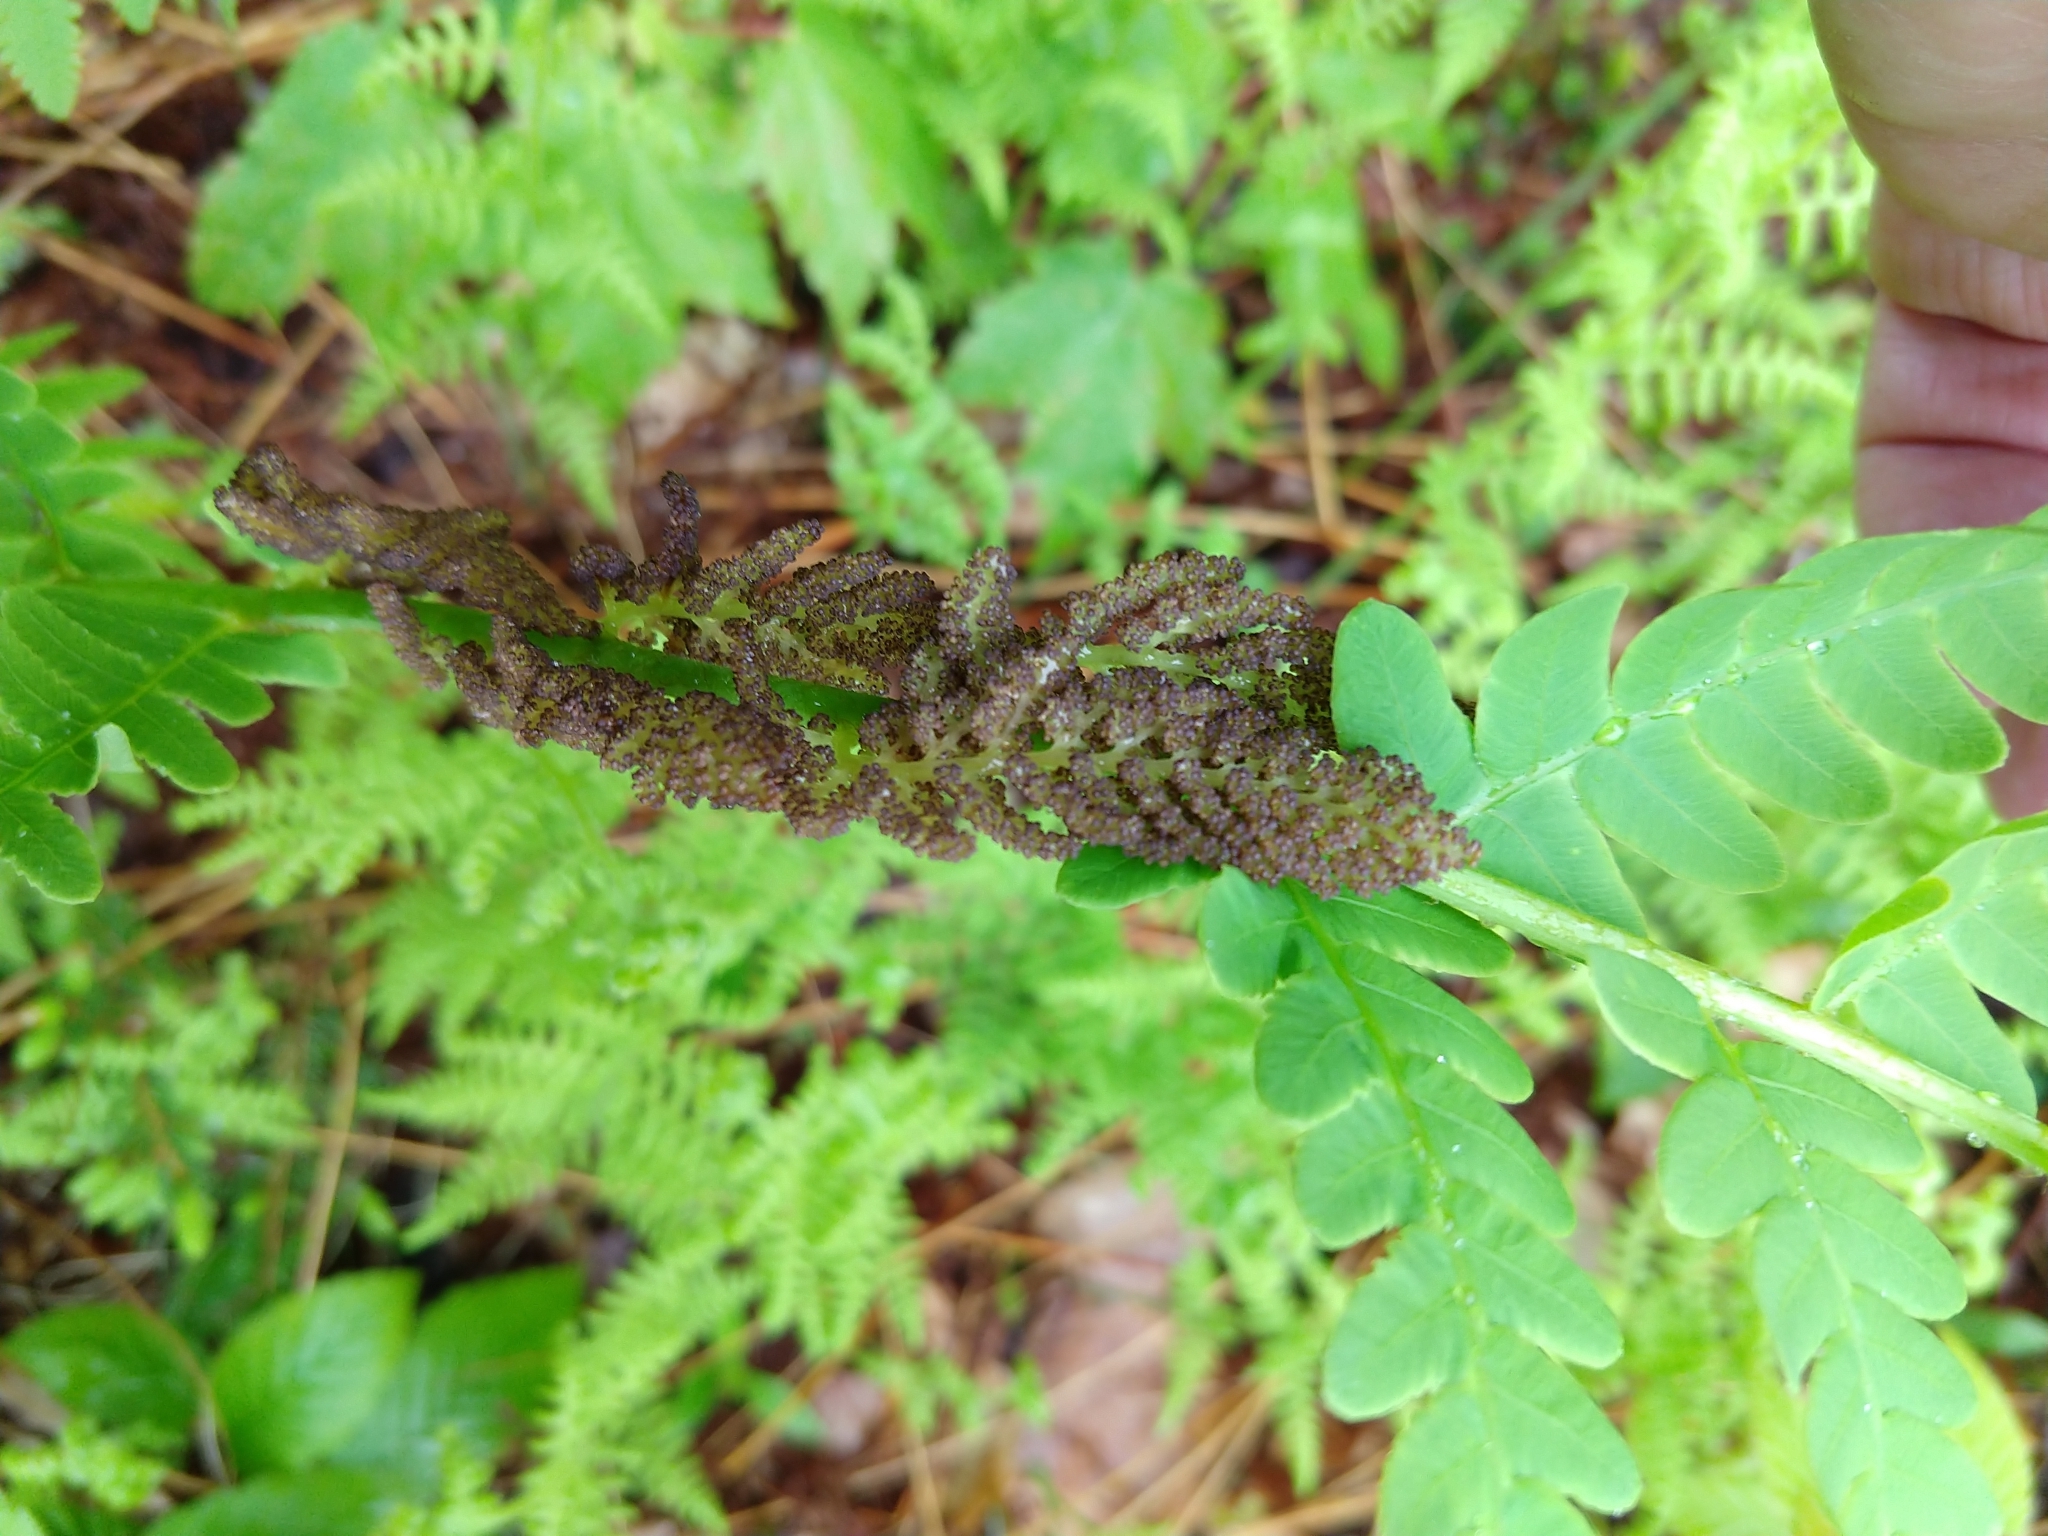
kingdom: Plantae
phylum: Tracheophyta
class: Polypodiopsida
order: Osmundales
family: Osmundaceae
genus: Claytosmunda
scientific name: Claytosmunda claytoniana
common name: Clayton's fern
